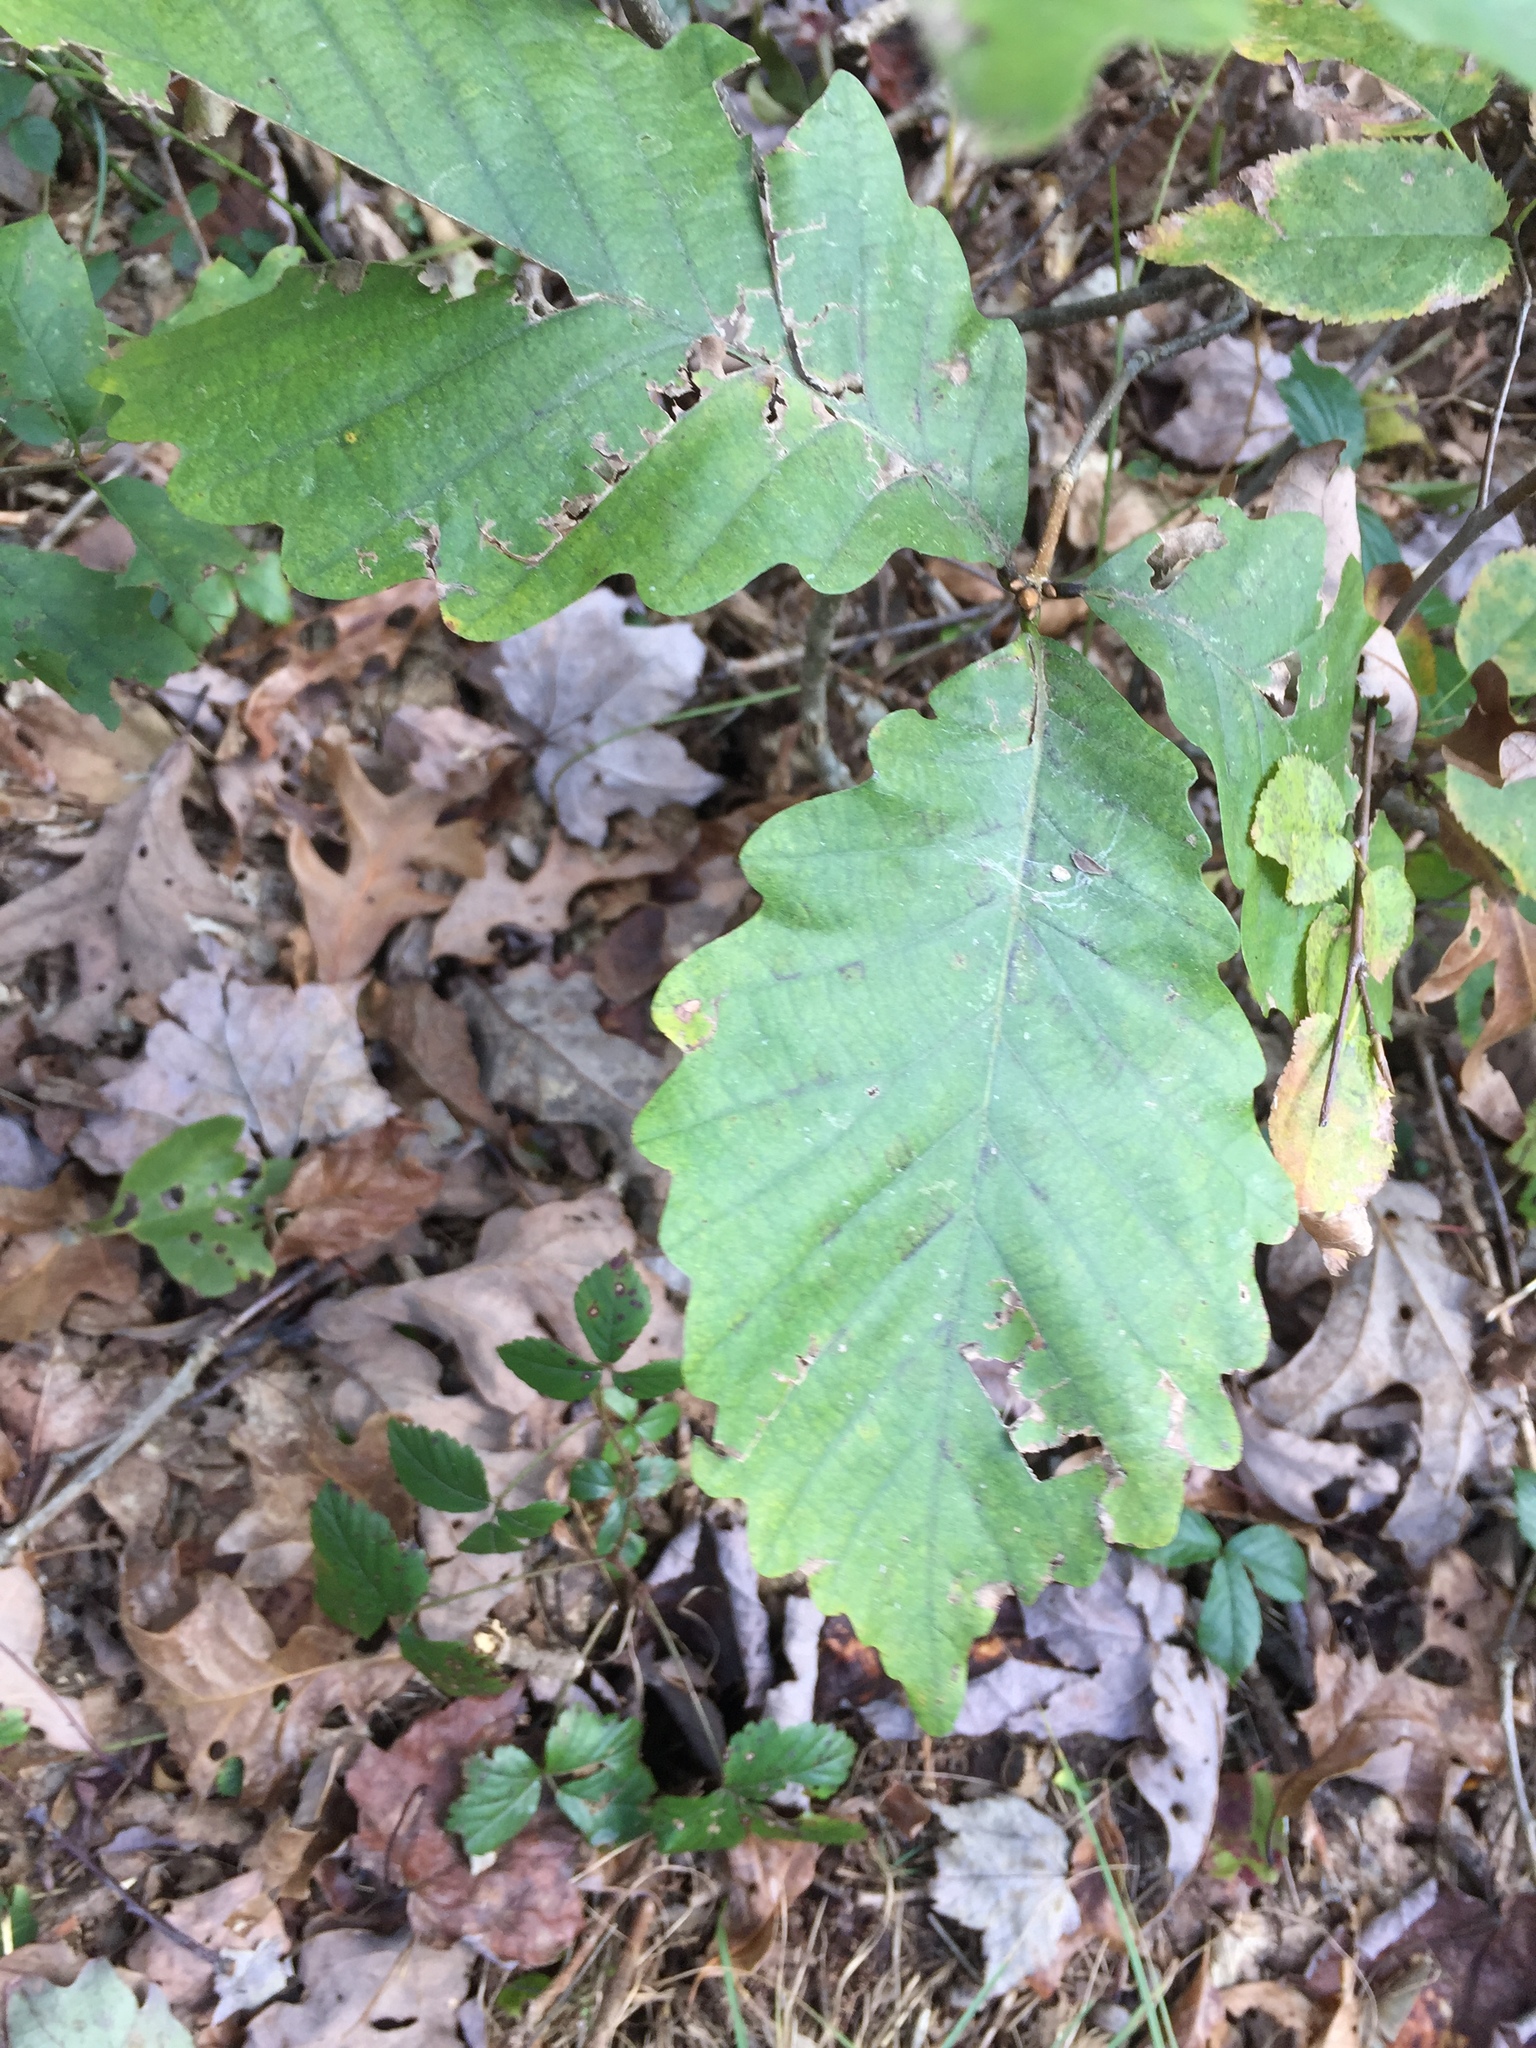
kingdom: Plantae
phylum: Tracheophyta
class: Magnoliopsida
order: Fagales
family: Fagaceae
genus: Quercus
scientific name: Quercus montana
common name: Chestnut oak
